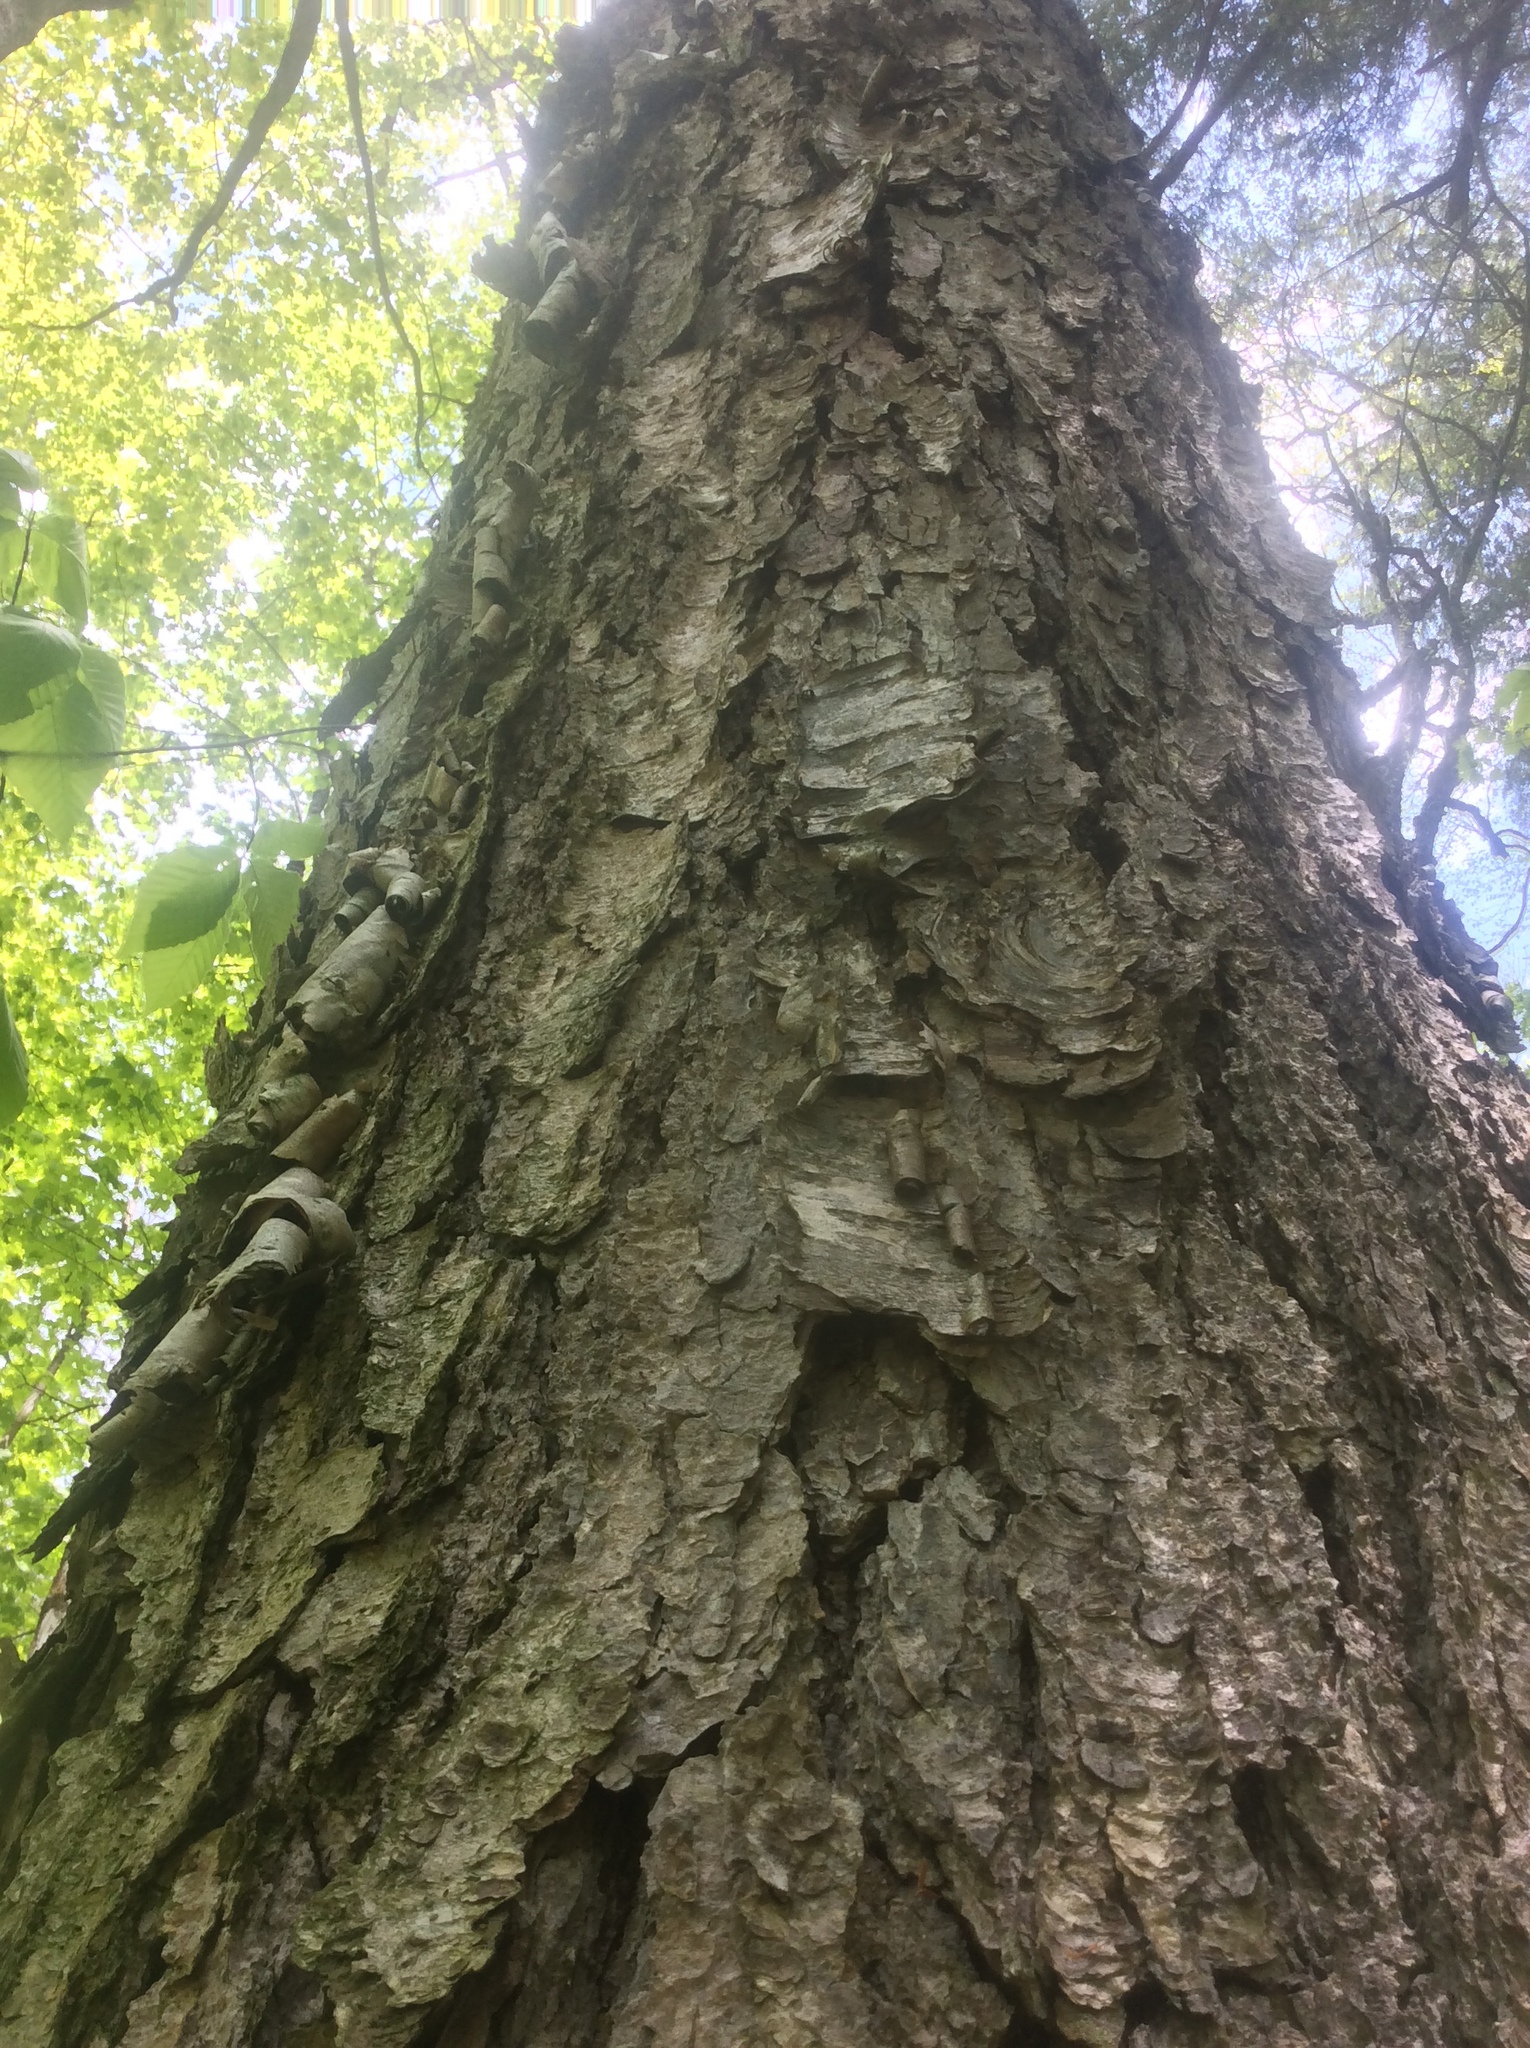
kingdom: Plantae
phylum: Tracheophyta
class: Magnoliopsida
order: Fagales
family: Betulaceae
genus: Betula
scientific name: Betula alleghaniensis
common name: Yellow birch
